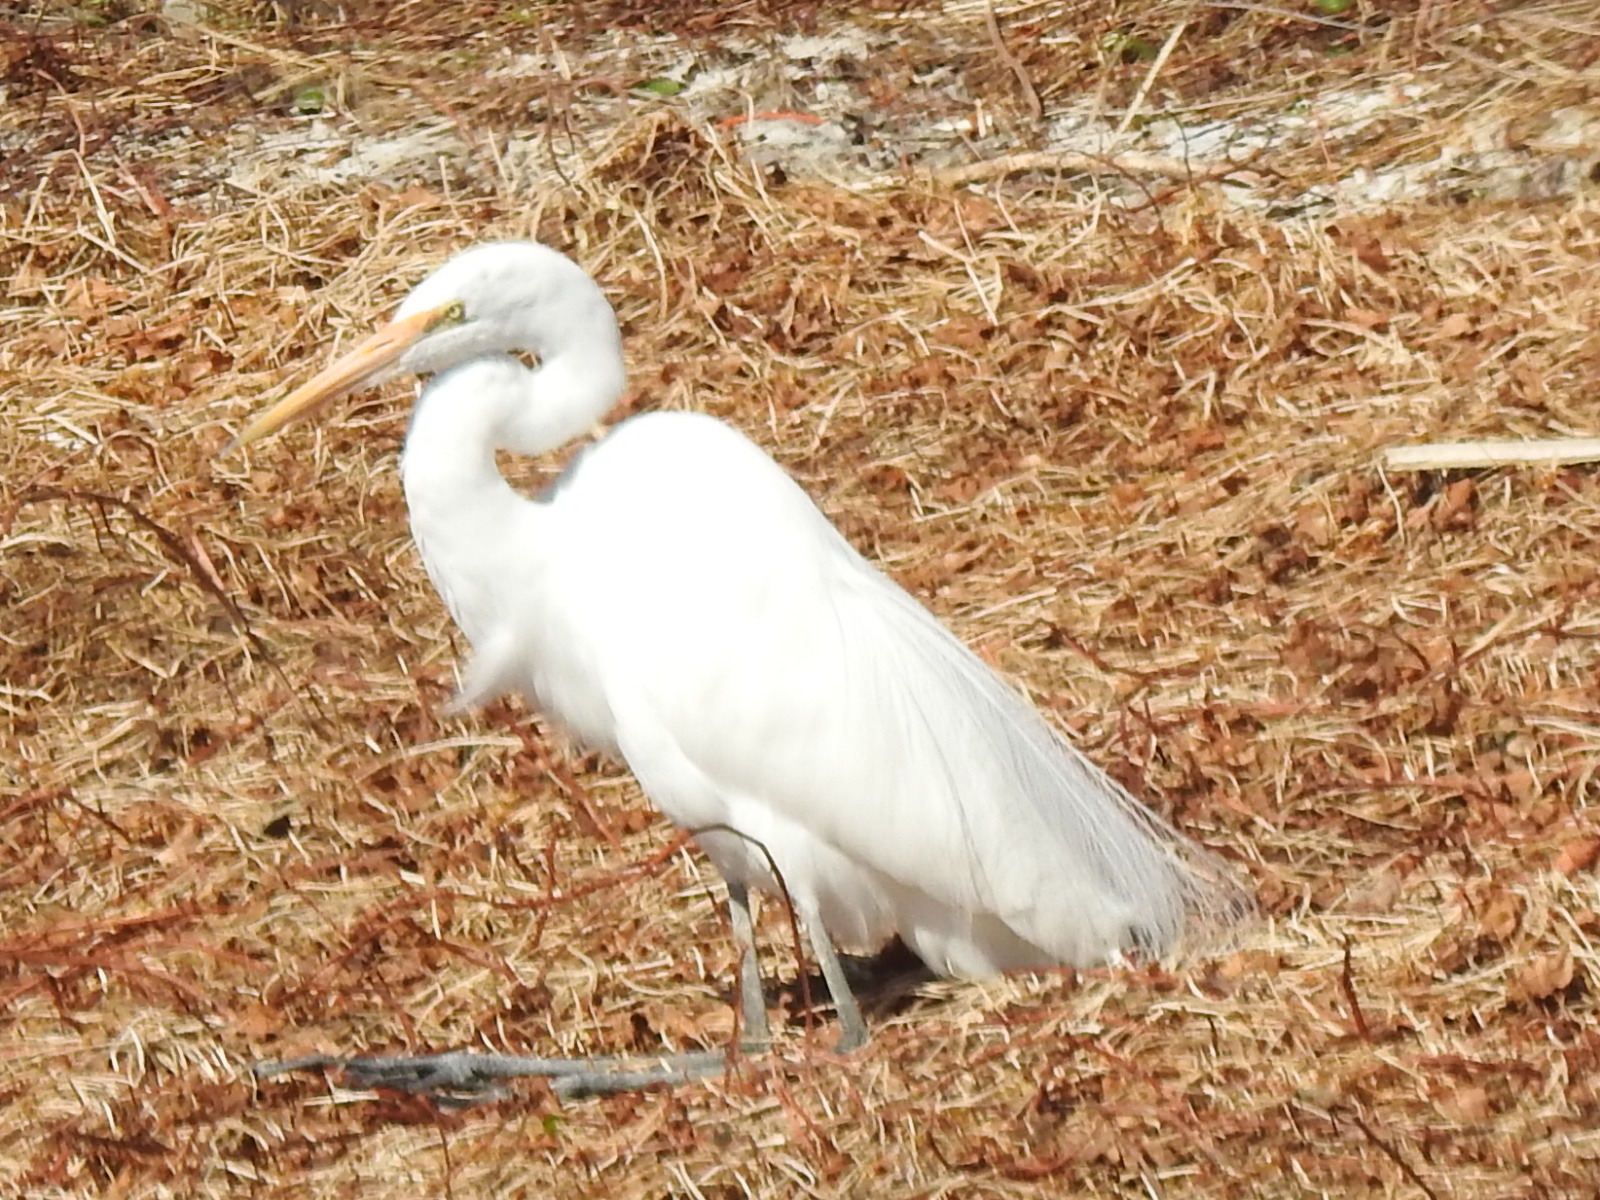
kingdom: Animalia
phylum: Chordata
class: Aves
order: Pelecaniformes
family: Ardeidae
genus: Ardea
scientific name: Ardea alba
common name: Great egret
